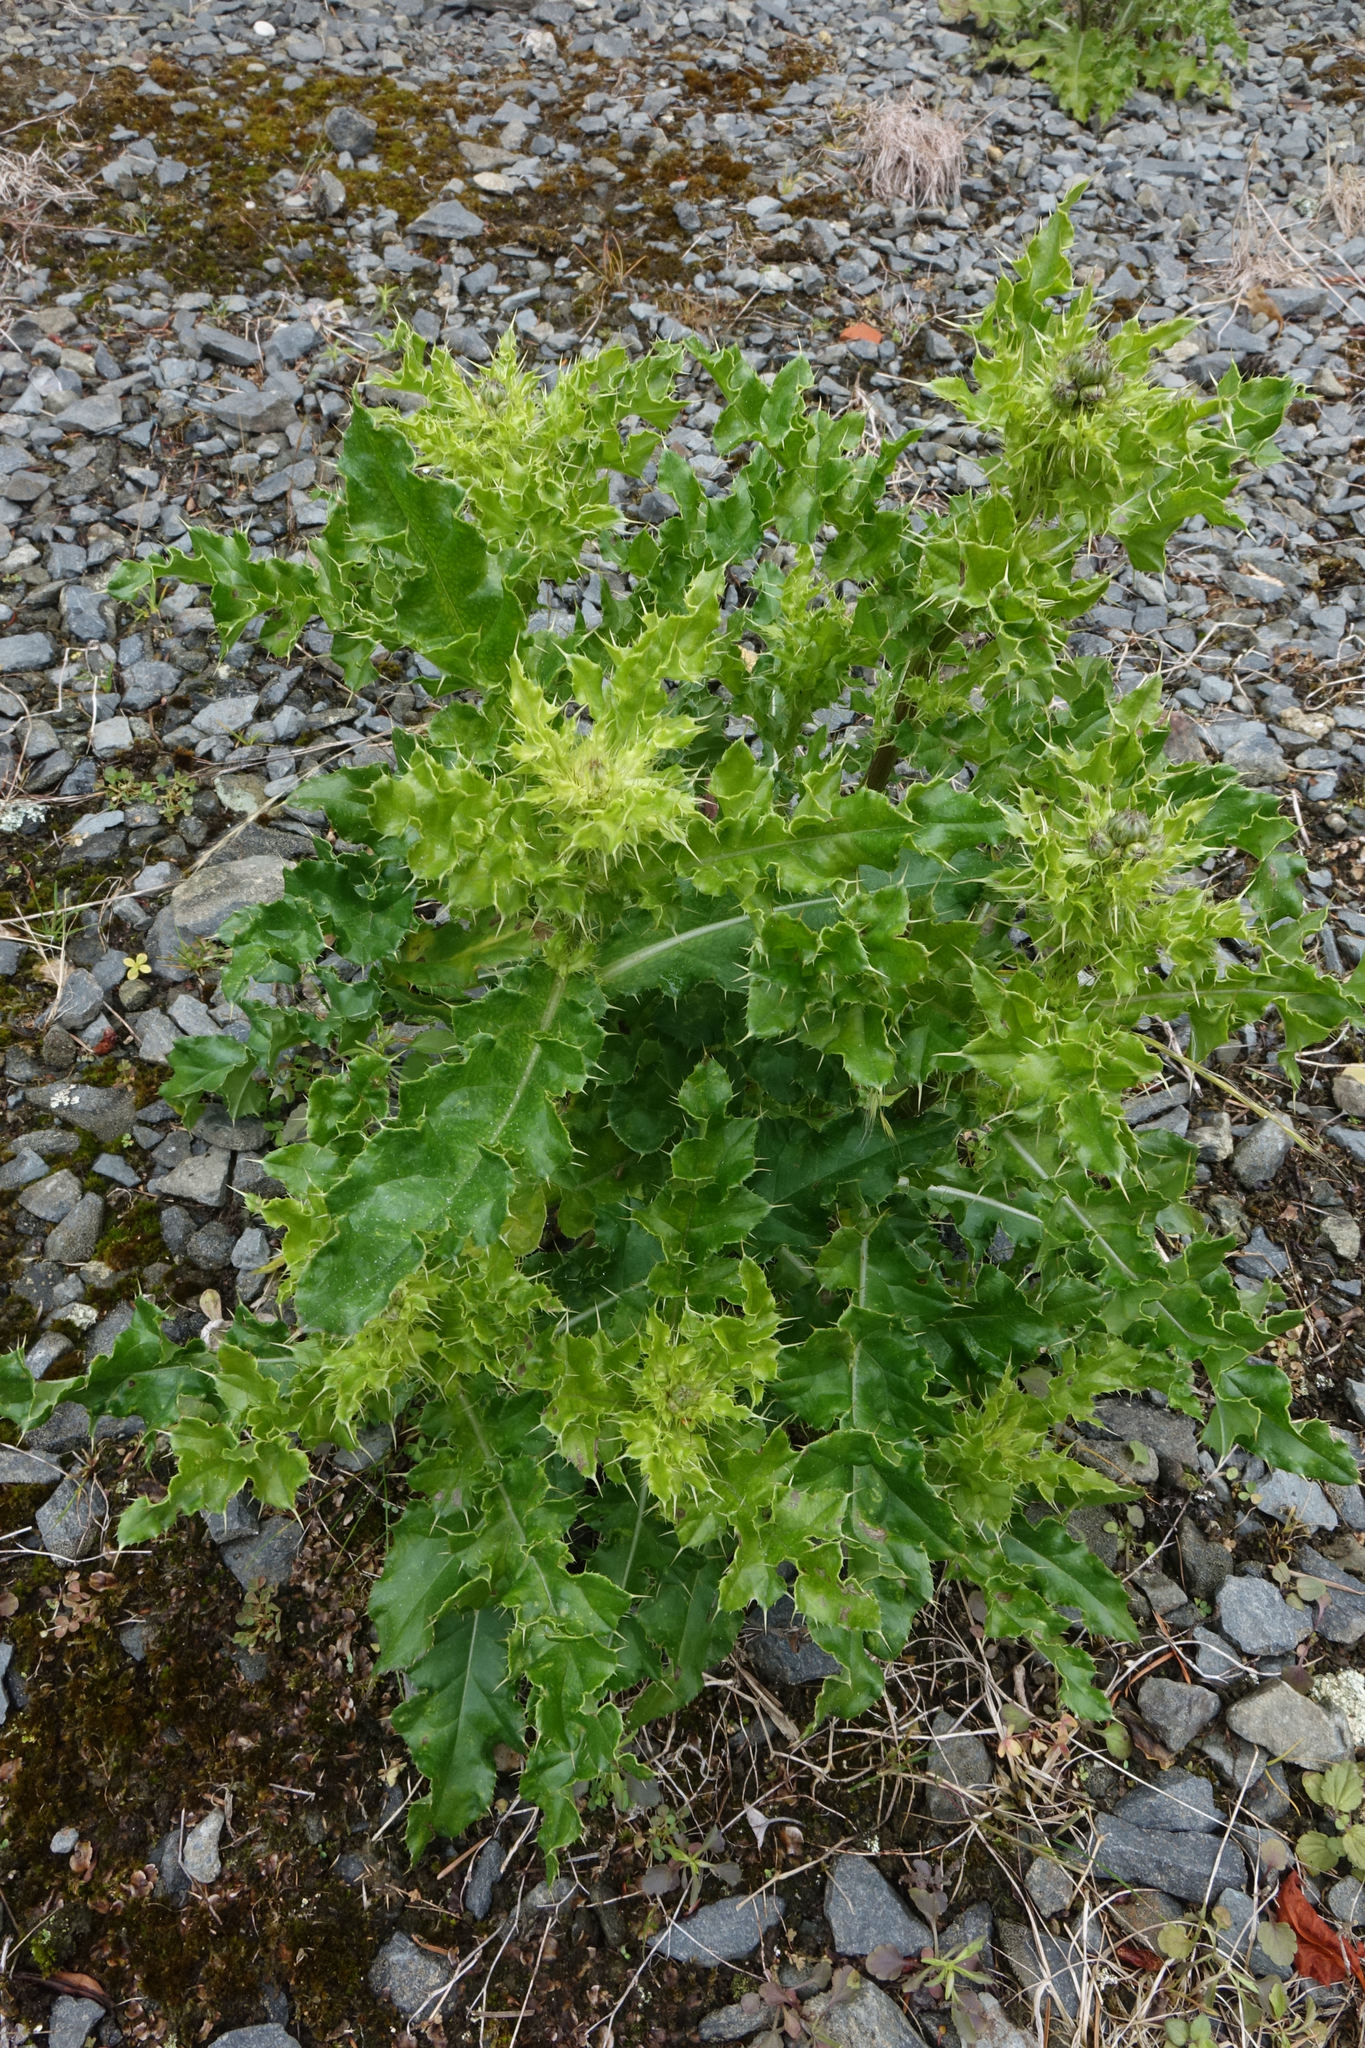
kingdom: Plantae
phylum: Tracheophyta
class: Magnoliopsida
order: Asterales
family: Asteraceae
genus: Cirsium
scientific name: Cirsium arvense
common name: Creeping thistle
